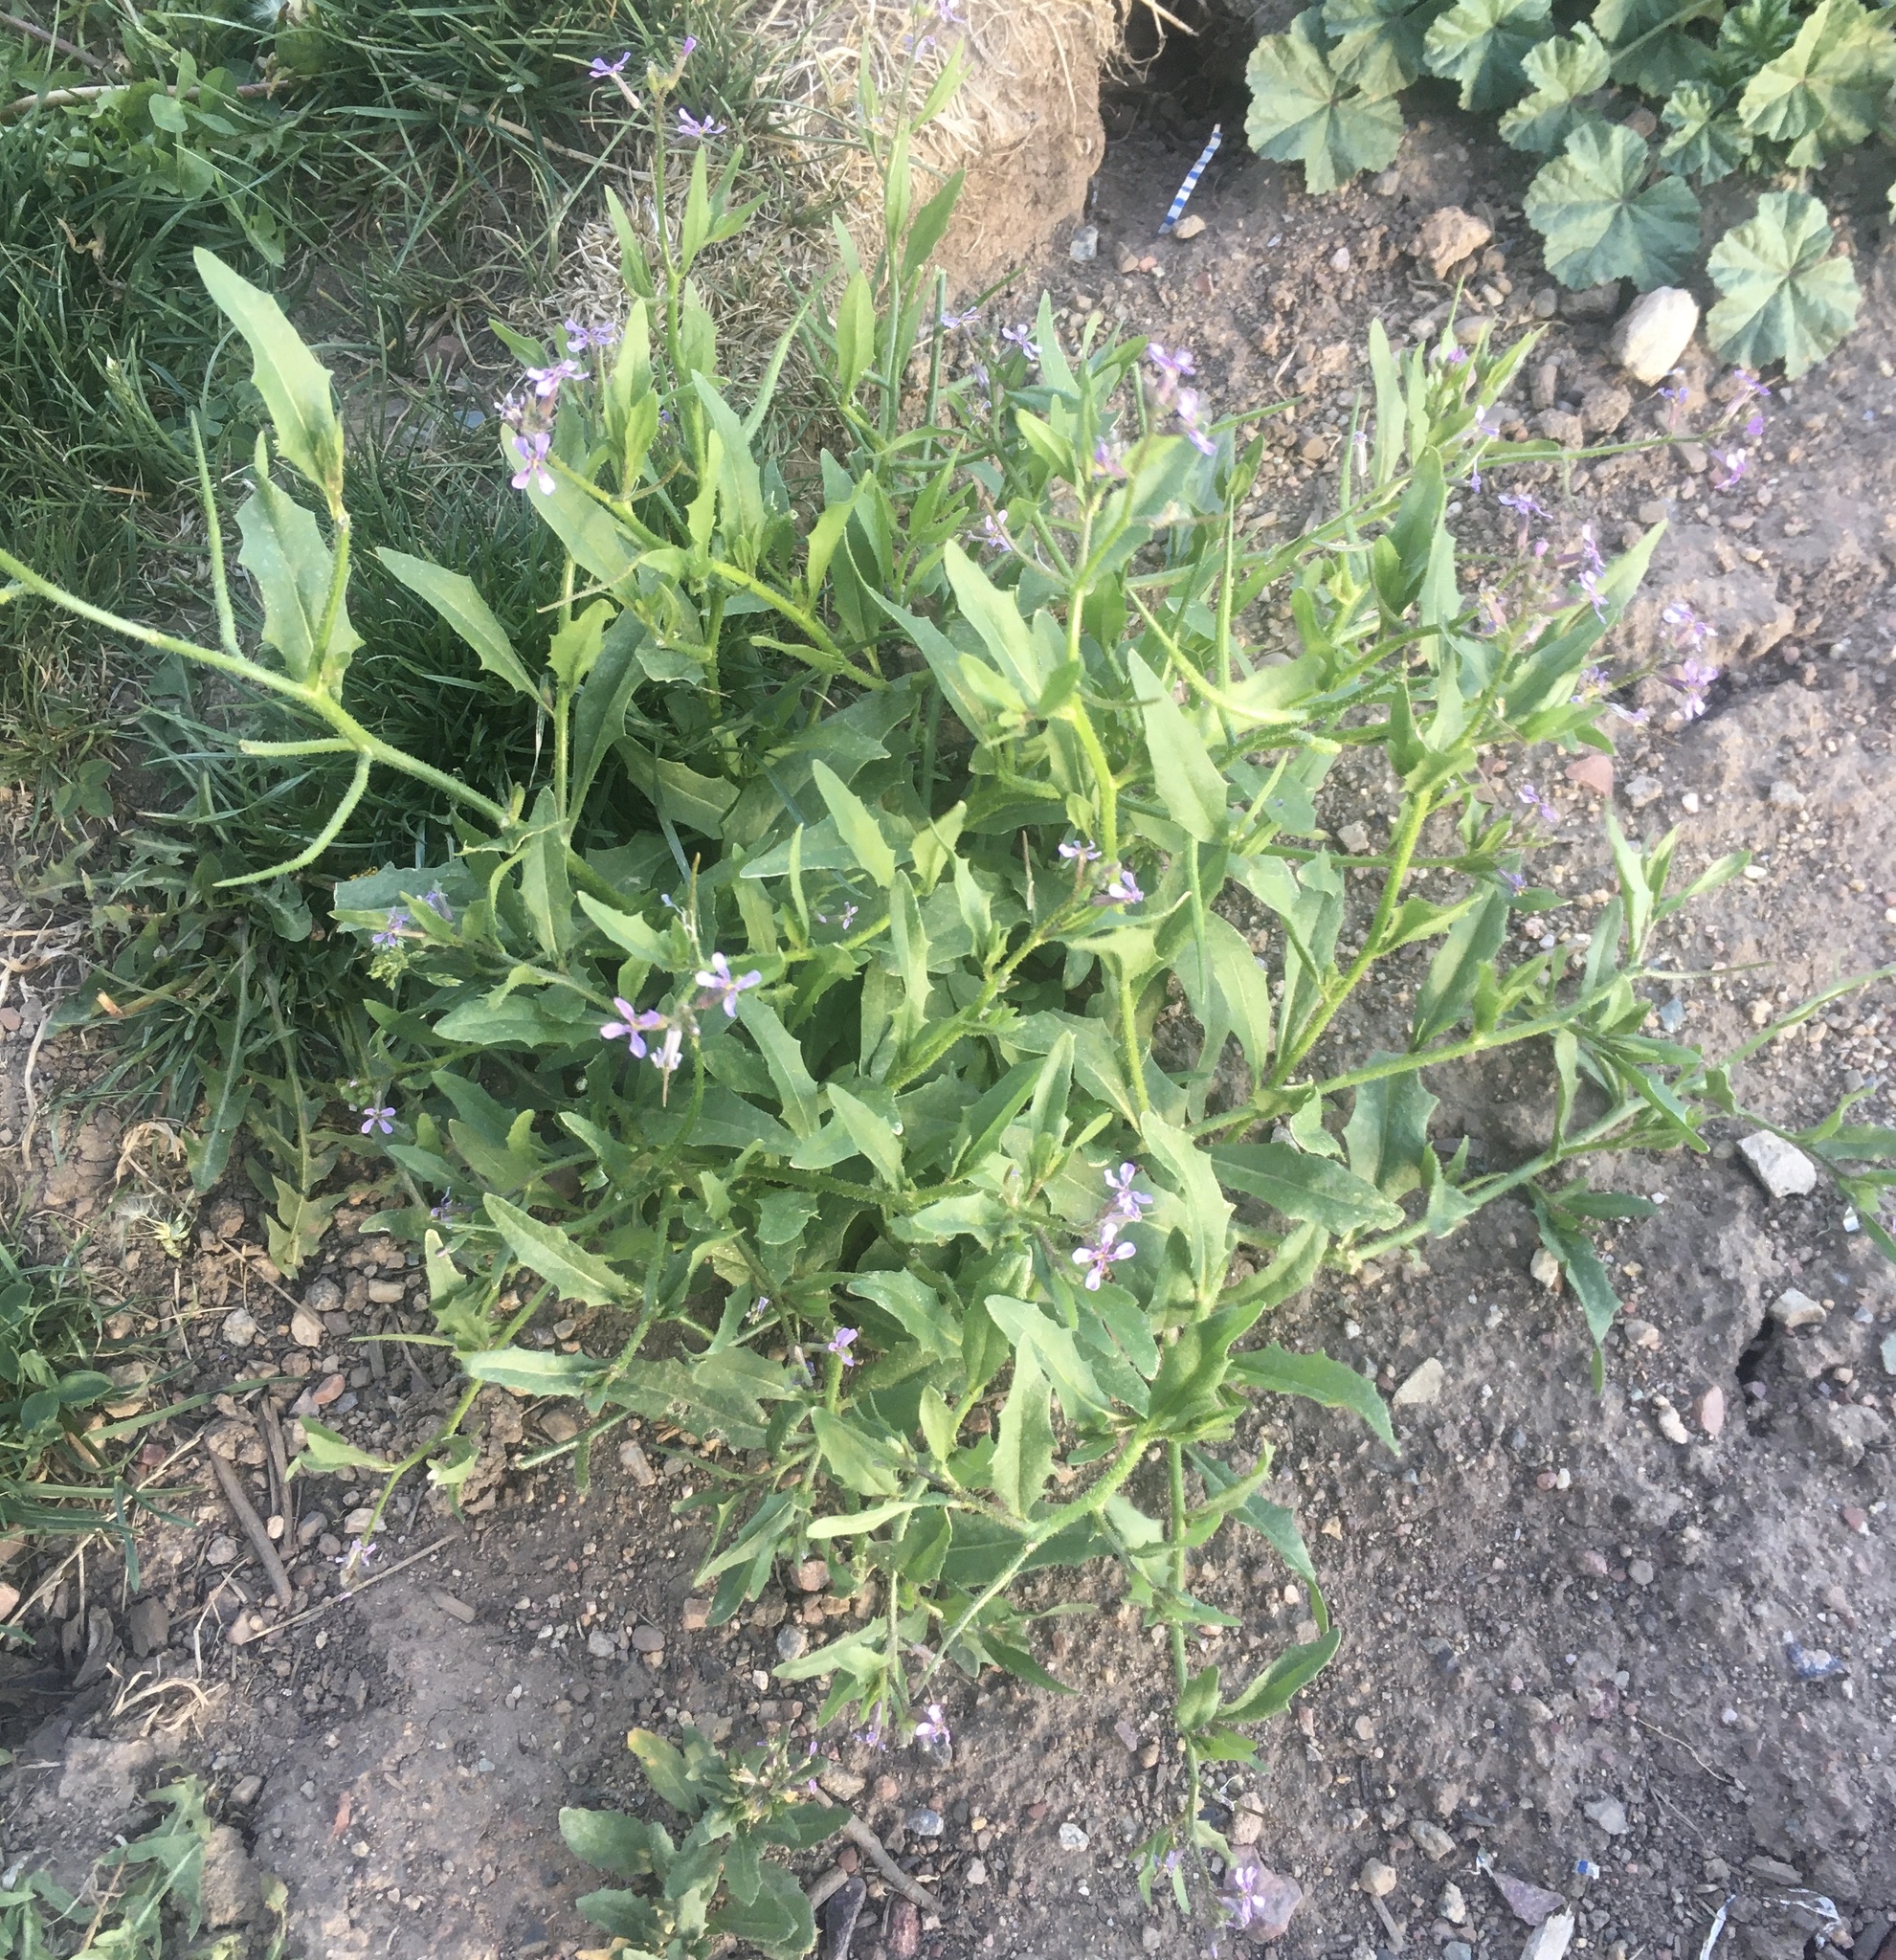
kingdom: Plantae
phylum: Tracheophyta
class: Magnoliopsida
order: Brassicales
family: Brassicaceae
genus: Chorispora
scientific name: Chorispora tenella
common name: Crossflower
